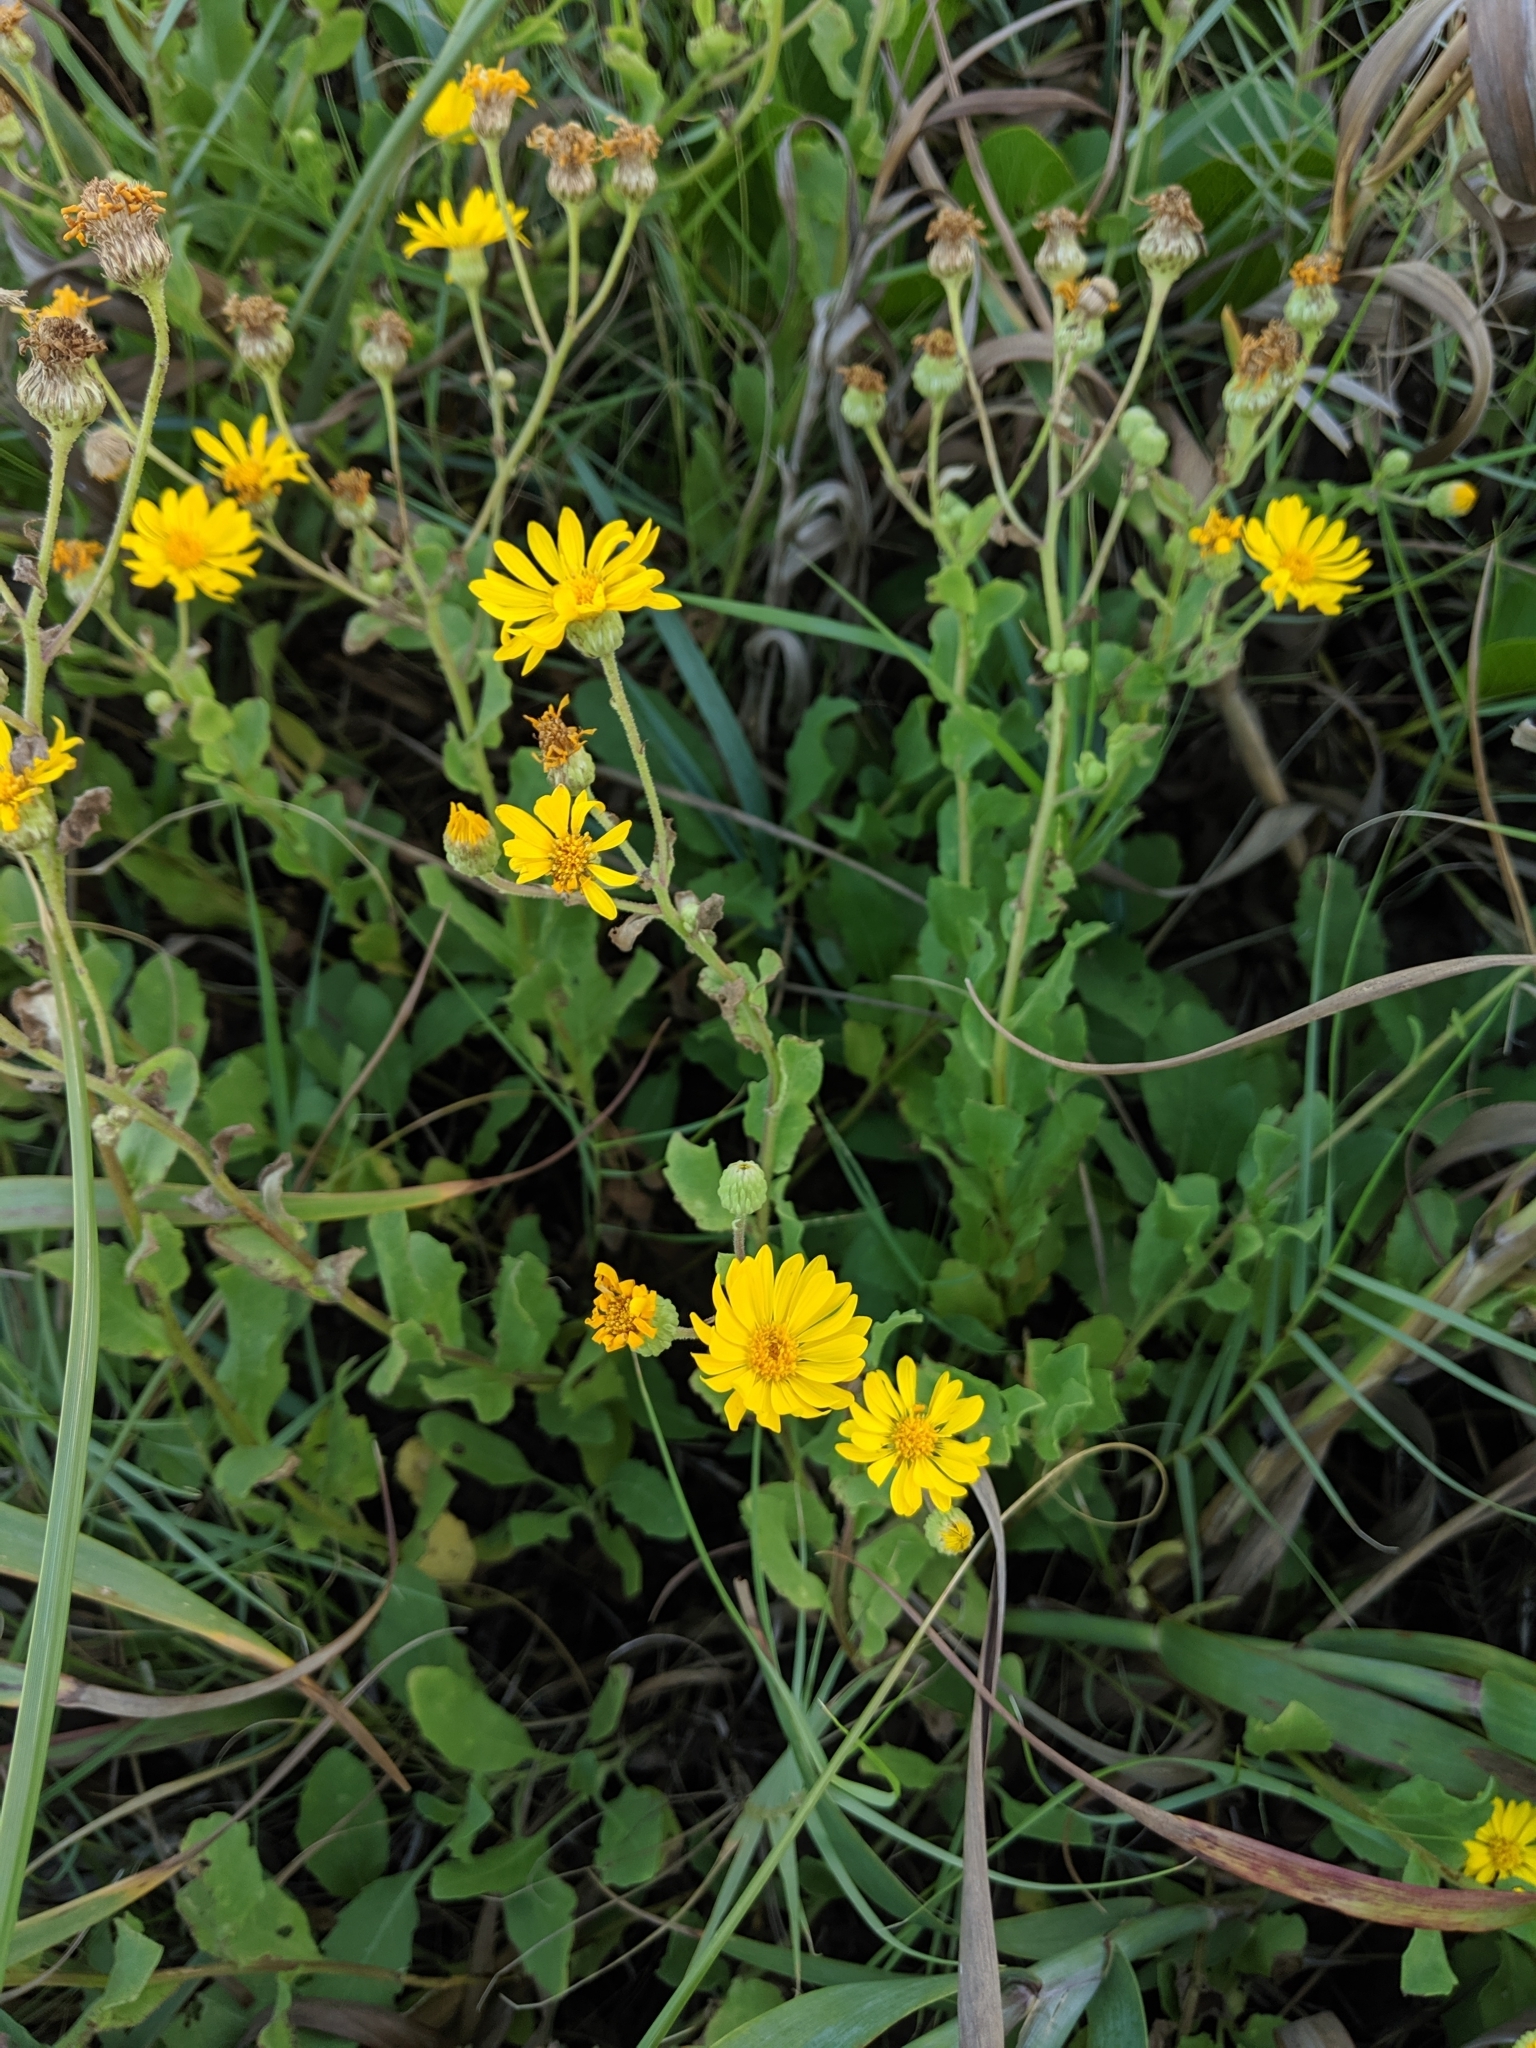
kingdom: Plantae
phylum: Tracheophyta
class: Magnoliopsida
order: Asterales
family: Asteraceae
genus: Heterotheca
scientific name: Heterotheca subaxillaris
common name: Camphorweed
